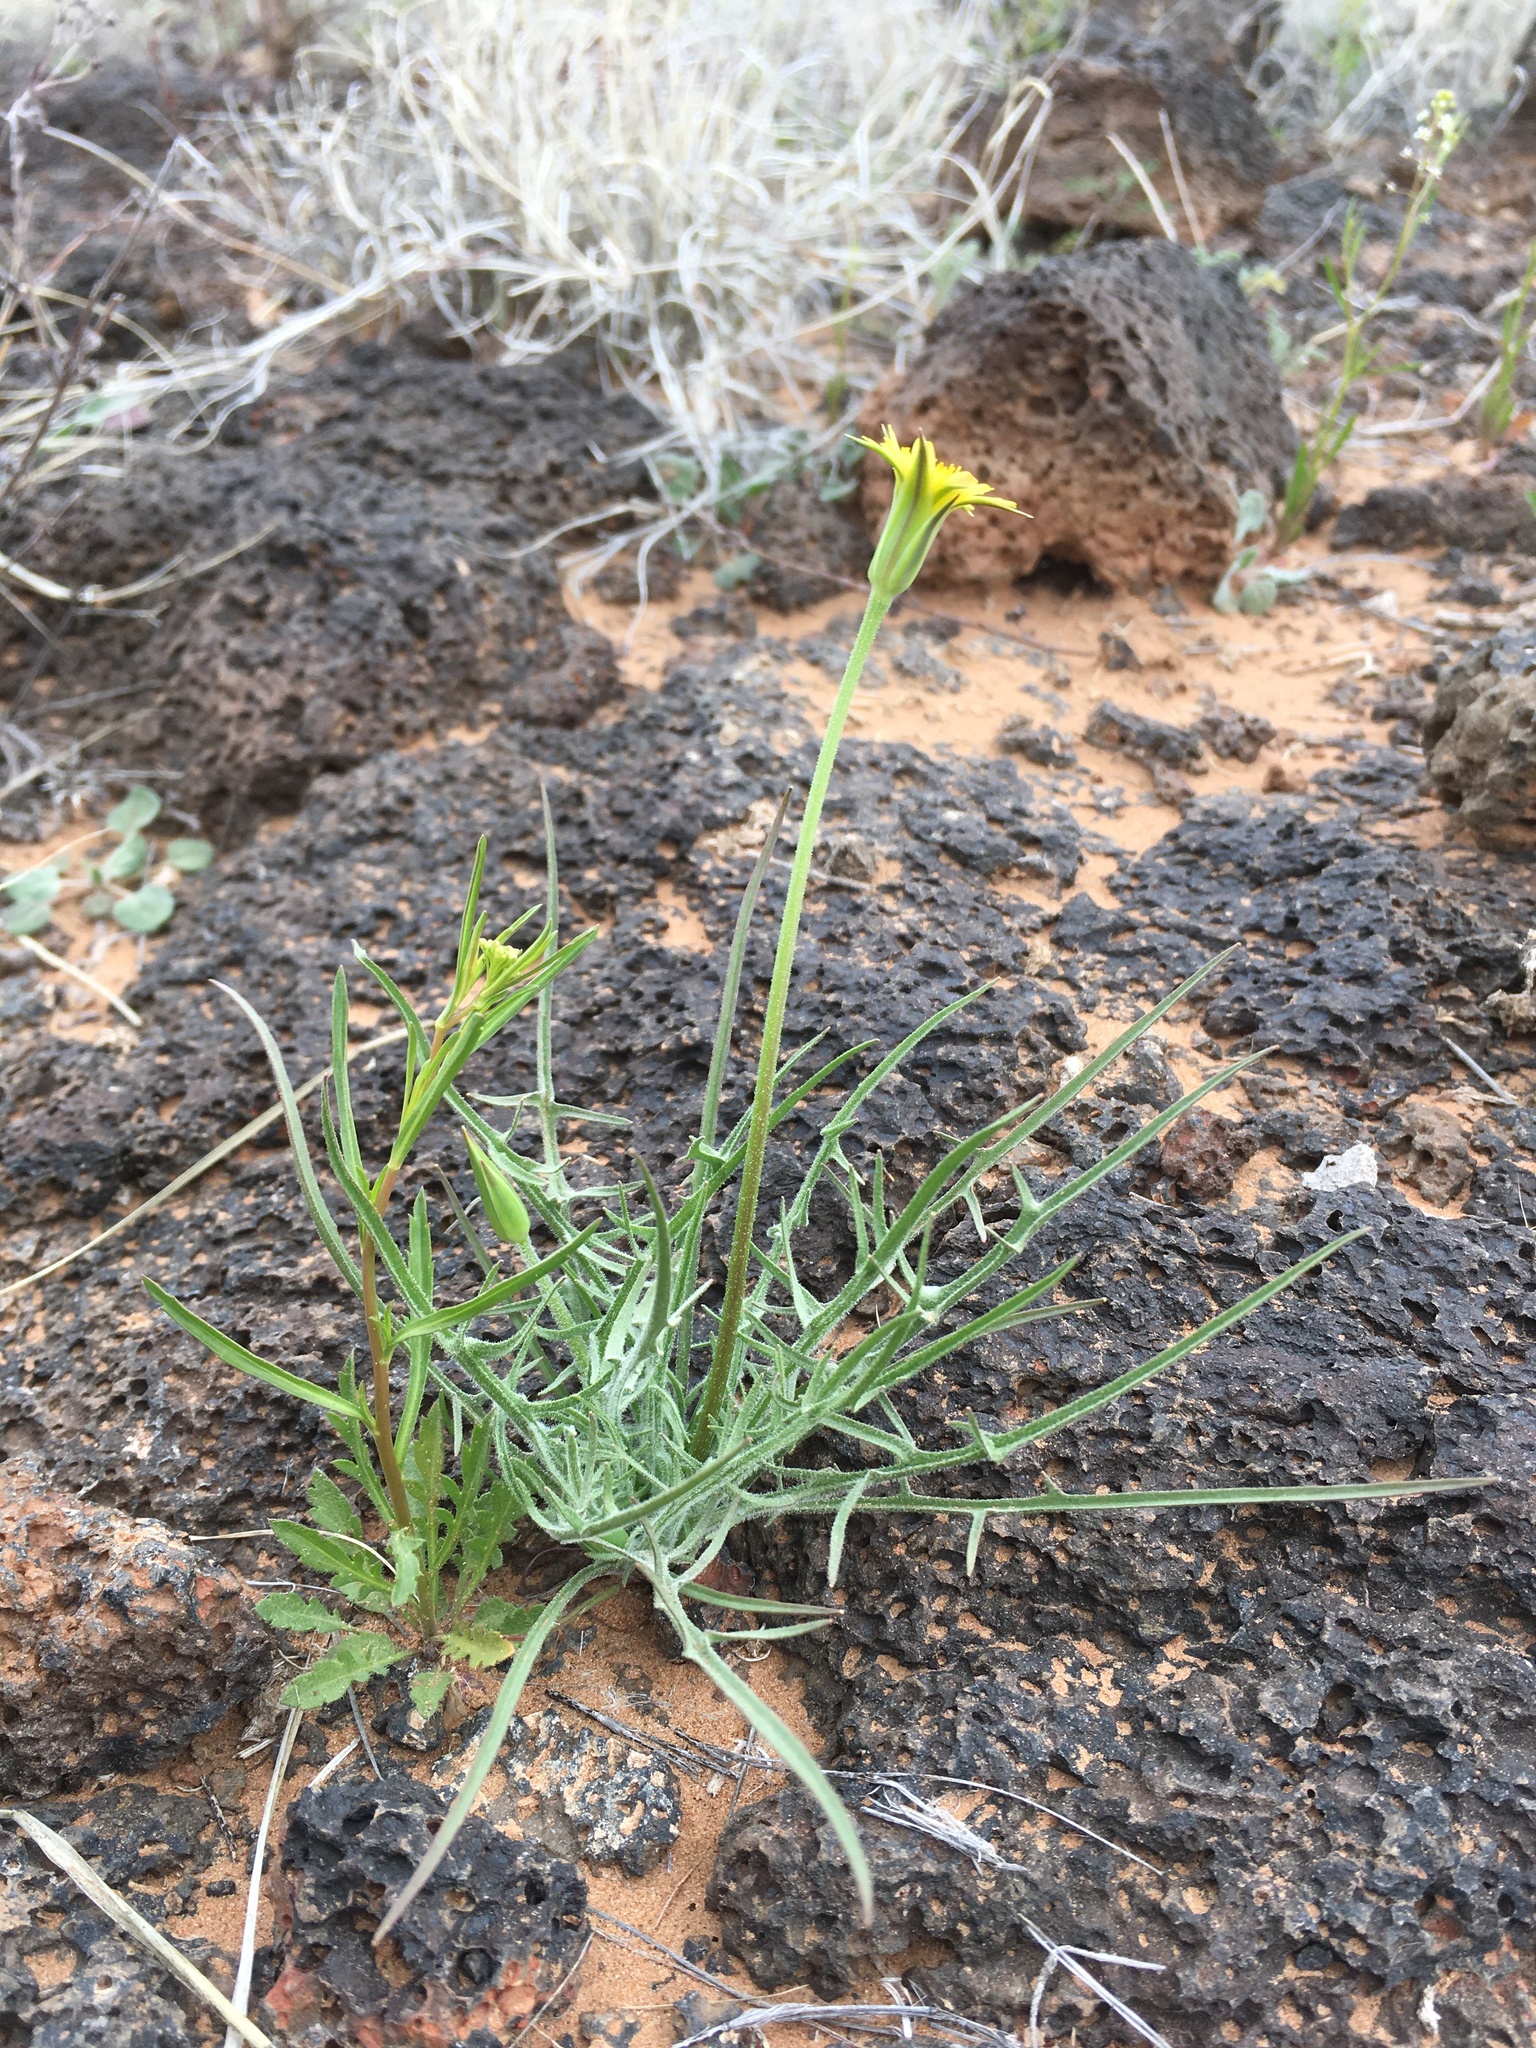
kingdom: Plantae
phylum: Tracheophyta
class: Magnoliopsida
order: Asterales
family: Asteraceae
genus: Microseris
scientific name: Microseris lindleyi
